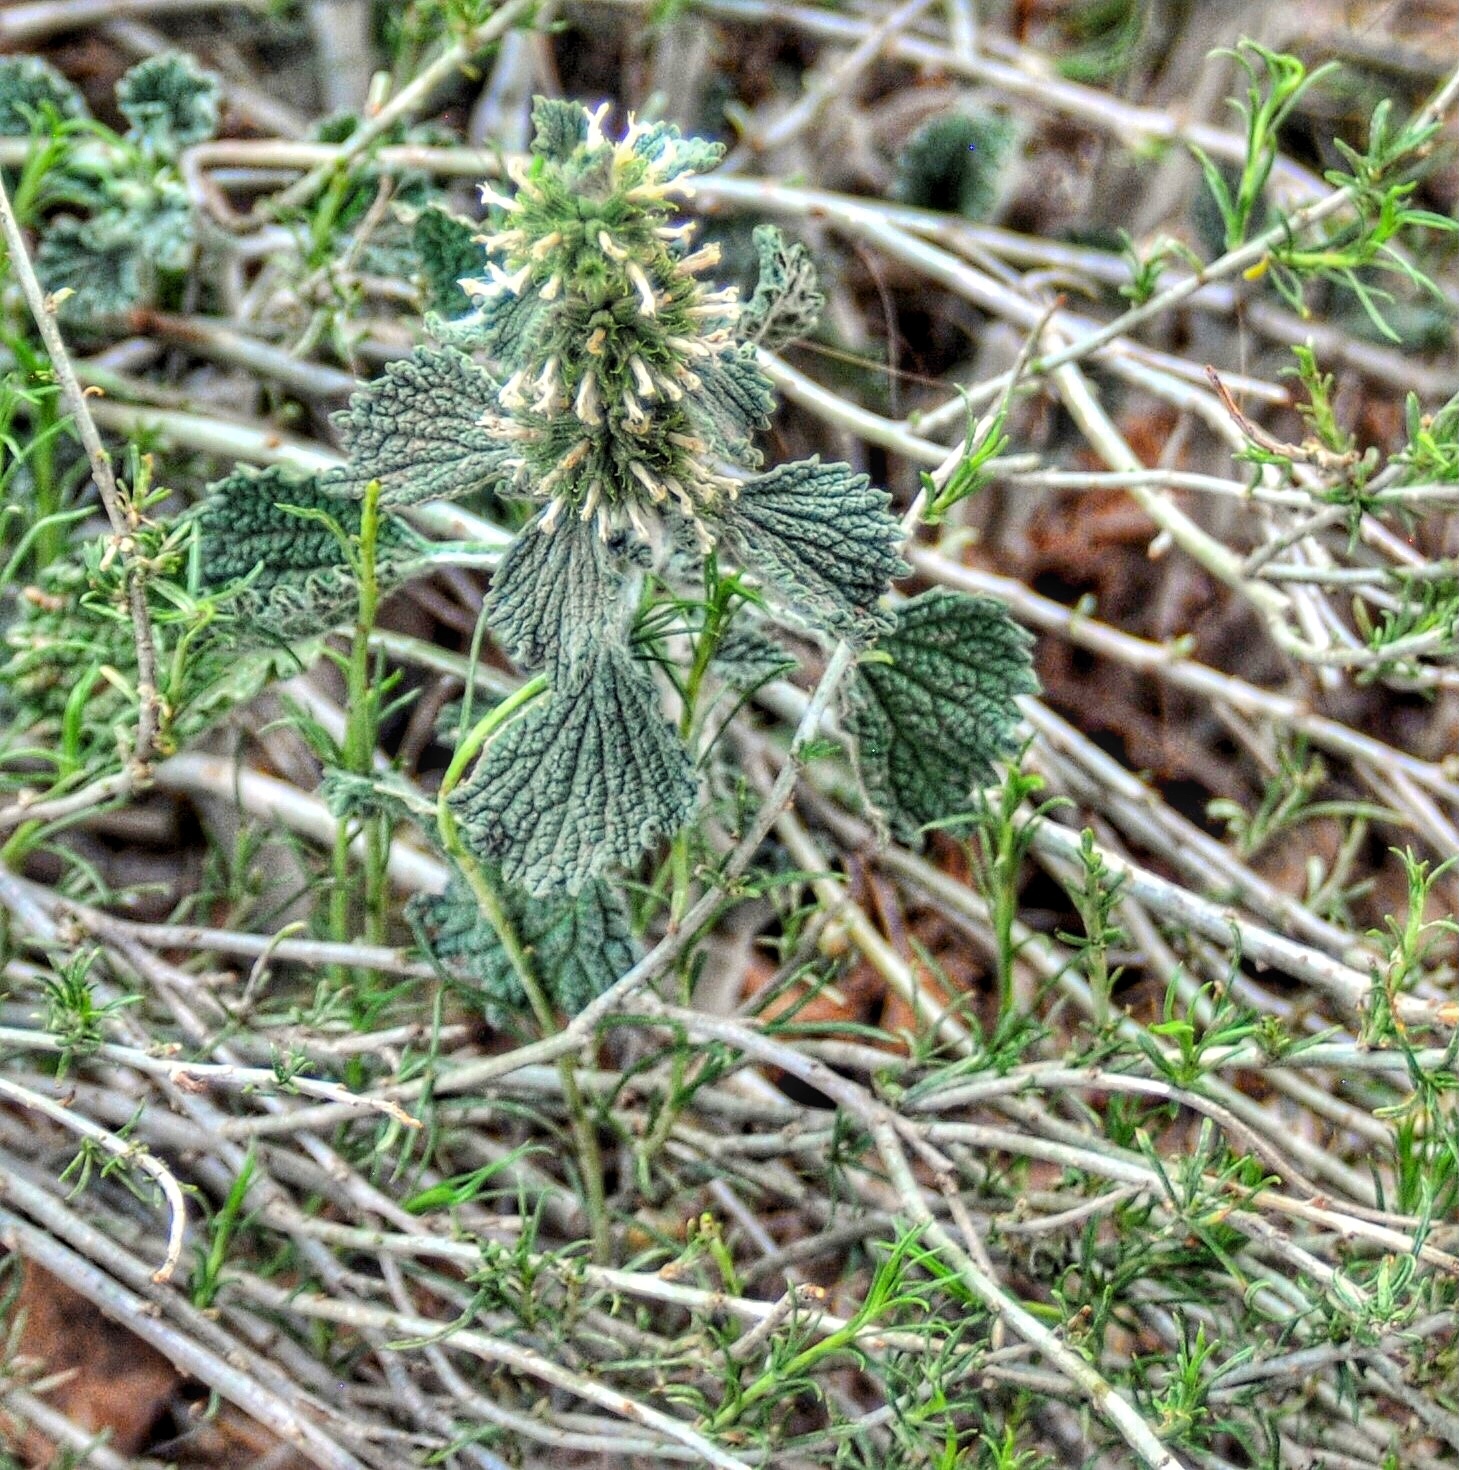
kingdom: Plantae
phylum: Tracheophyta
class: Magnoliopsida
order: Lamiales
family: Lamiaceae
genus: Marrubium
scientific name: Marrubium vulgare
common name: Horehound
